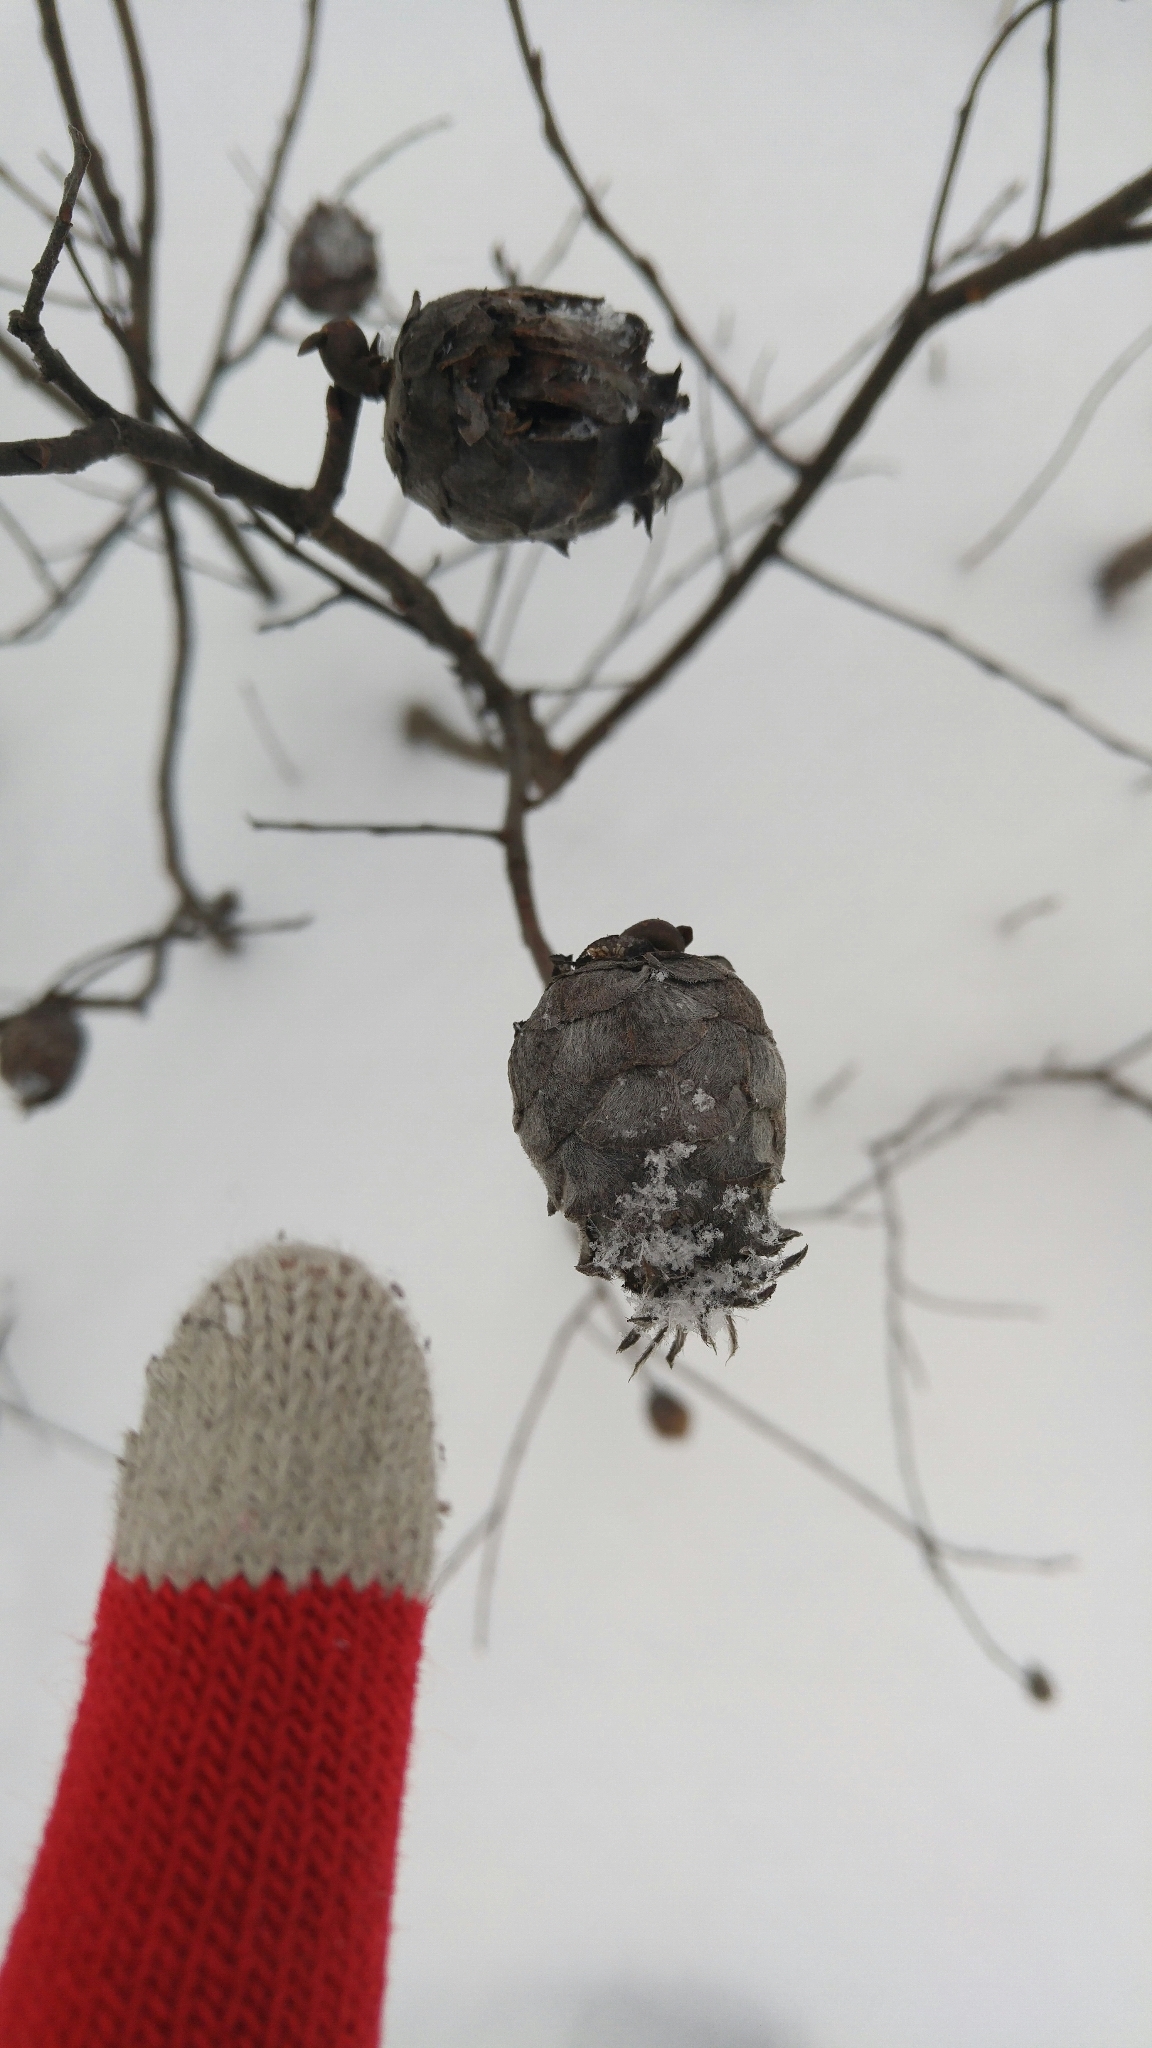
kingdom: Animalia
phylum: Arthropoda
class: Insecta
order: Diptera
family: Cecidomyiidae
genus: Rabdophaga
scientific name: Rabdophaga strobiloides
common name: Willow pinecone gall midge
